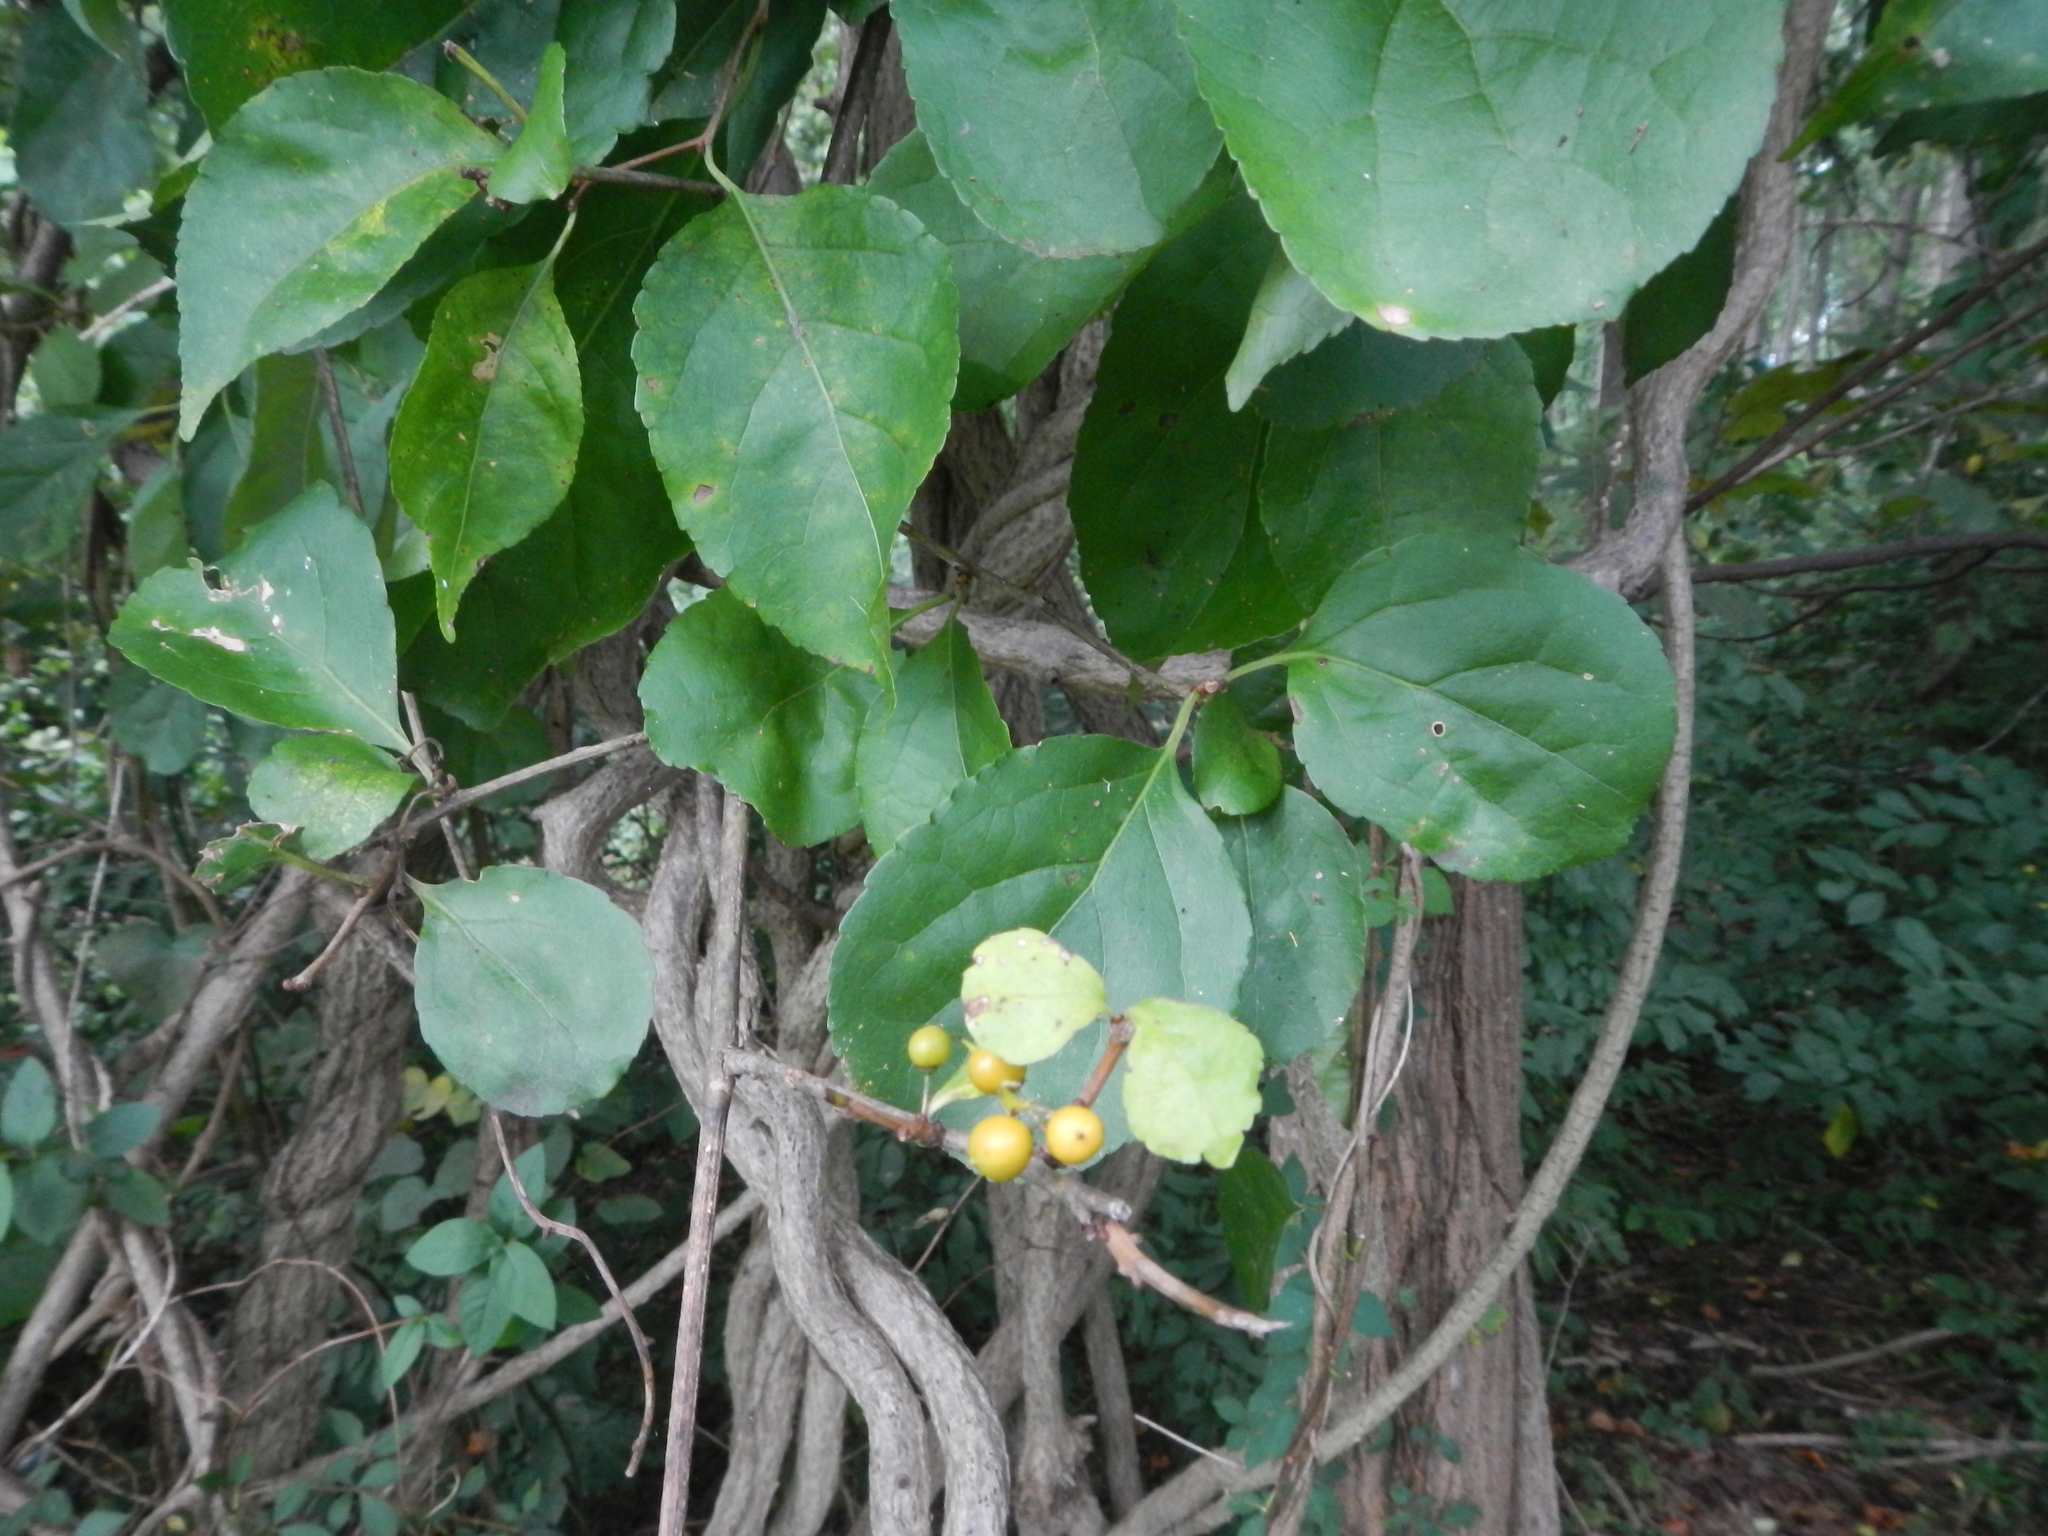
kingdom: Plantae
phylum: Tracheophyta
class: Magnoliopsida
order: Celastrales
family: Celastraceae
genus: Celastrus
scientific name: Celastrus orbiculatus
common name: Oriental bittersweet
